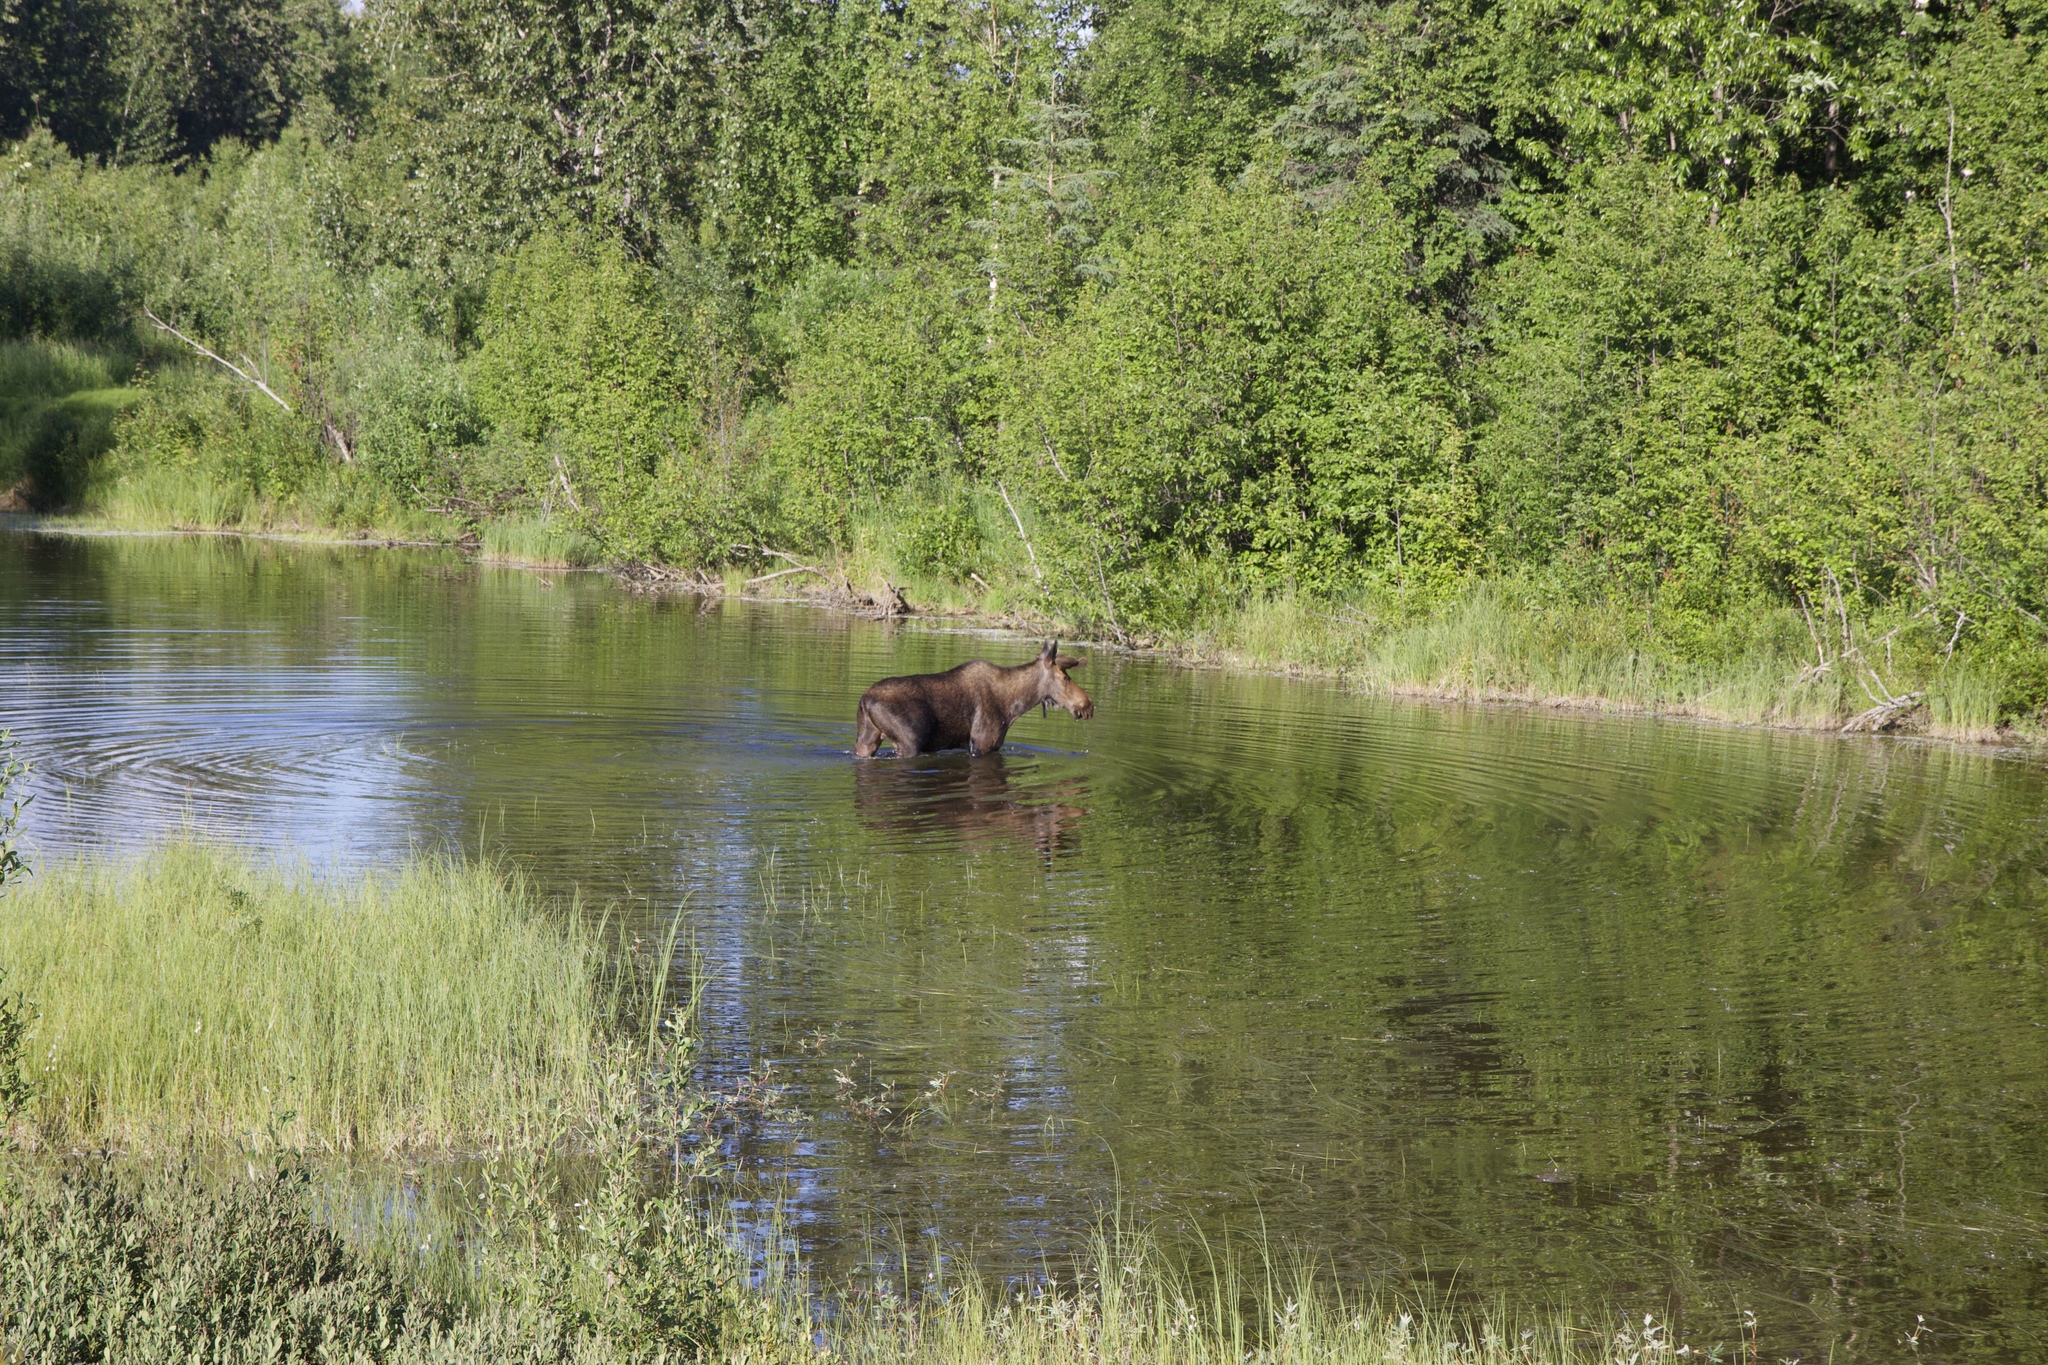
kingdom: Animalia
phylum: Chordata
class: Mammalia
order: Artiodactyla
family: Cervidae
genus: Alces
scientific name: Alces alces
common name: Moose
